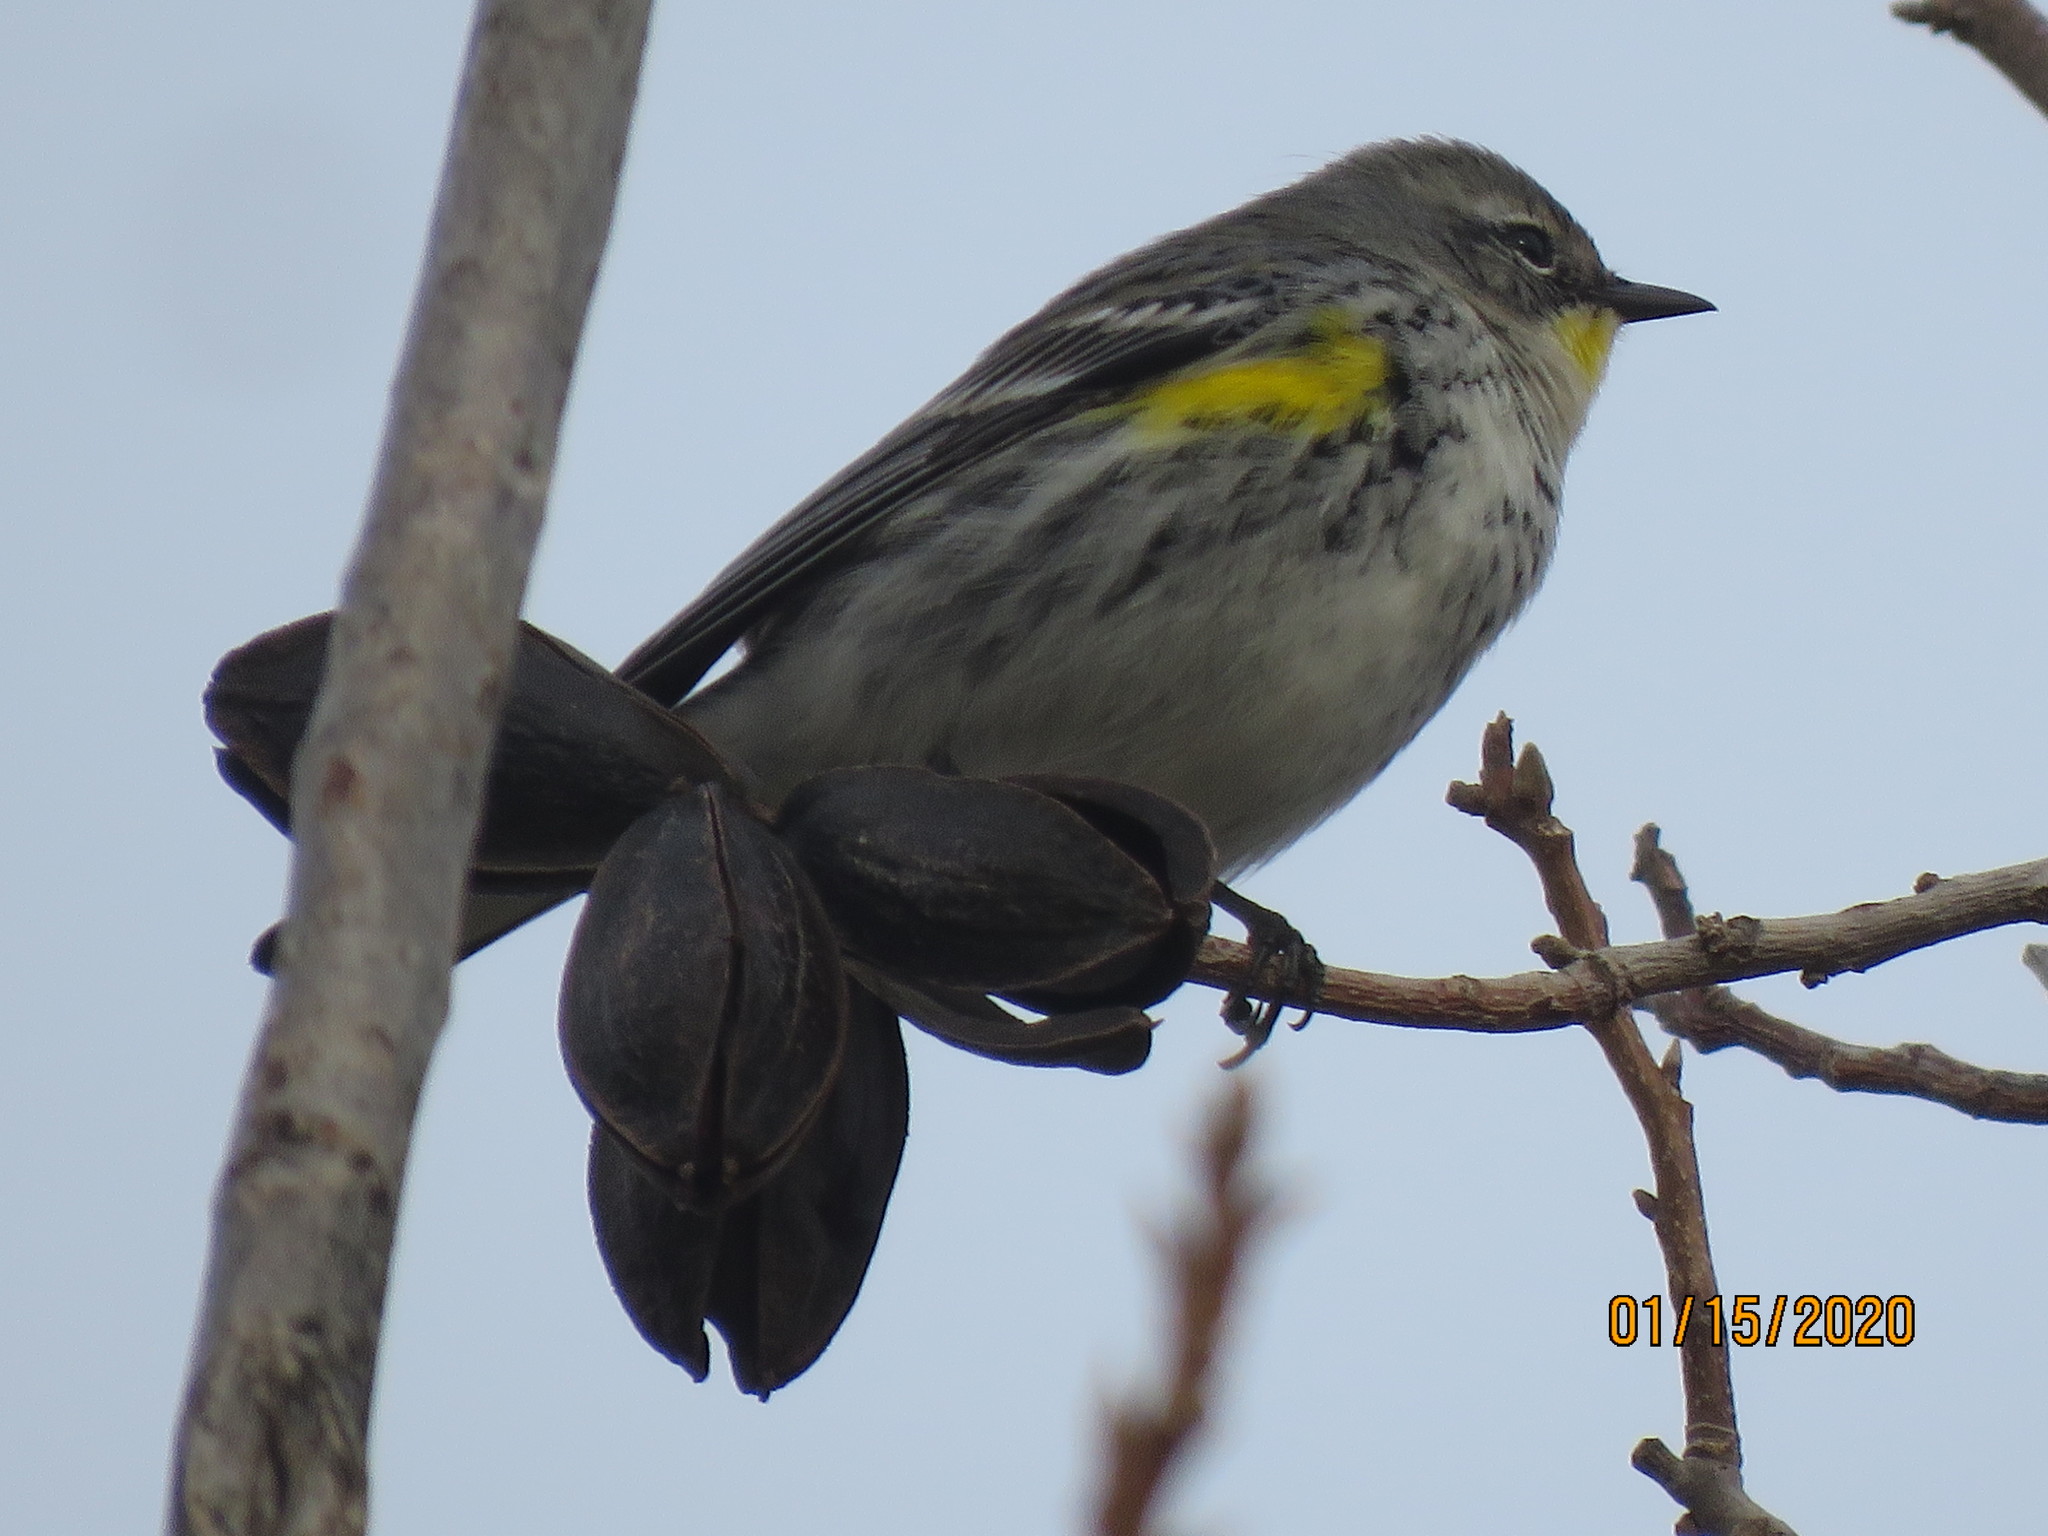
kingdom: Animalia
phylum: Chordata
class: Aves
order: Passeriformes
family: Parulidae
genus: Setophaga
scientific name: Setophaga coronata
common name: Myrtle warbler
